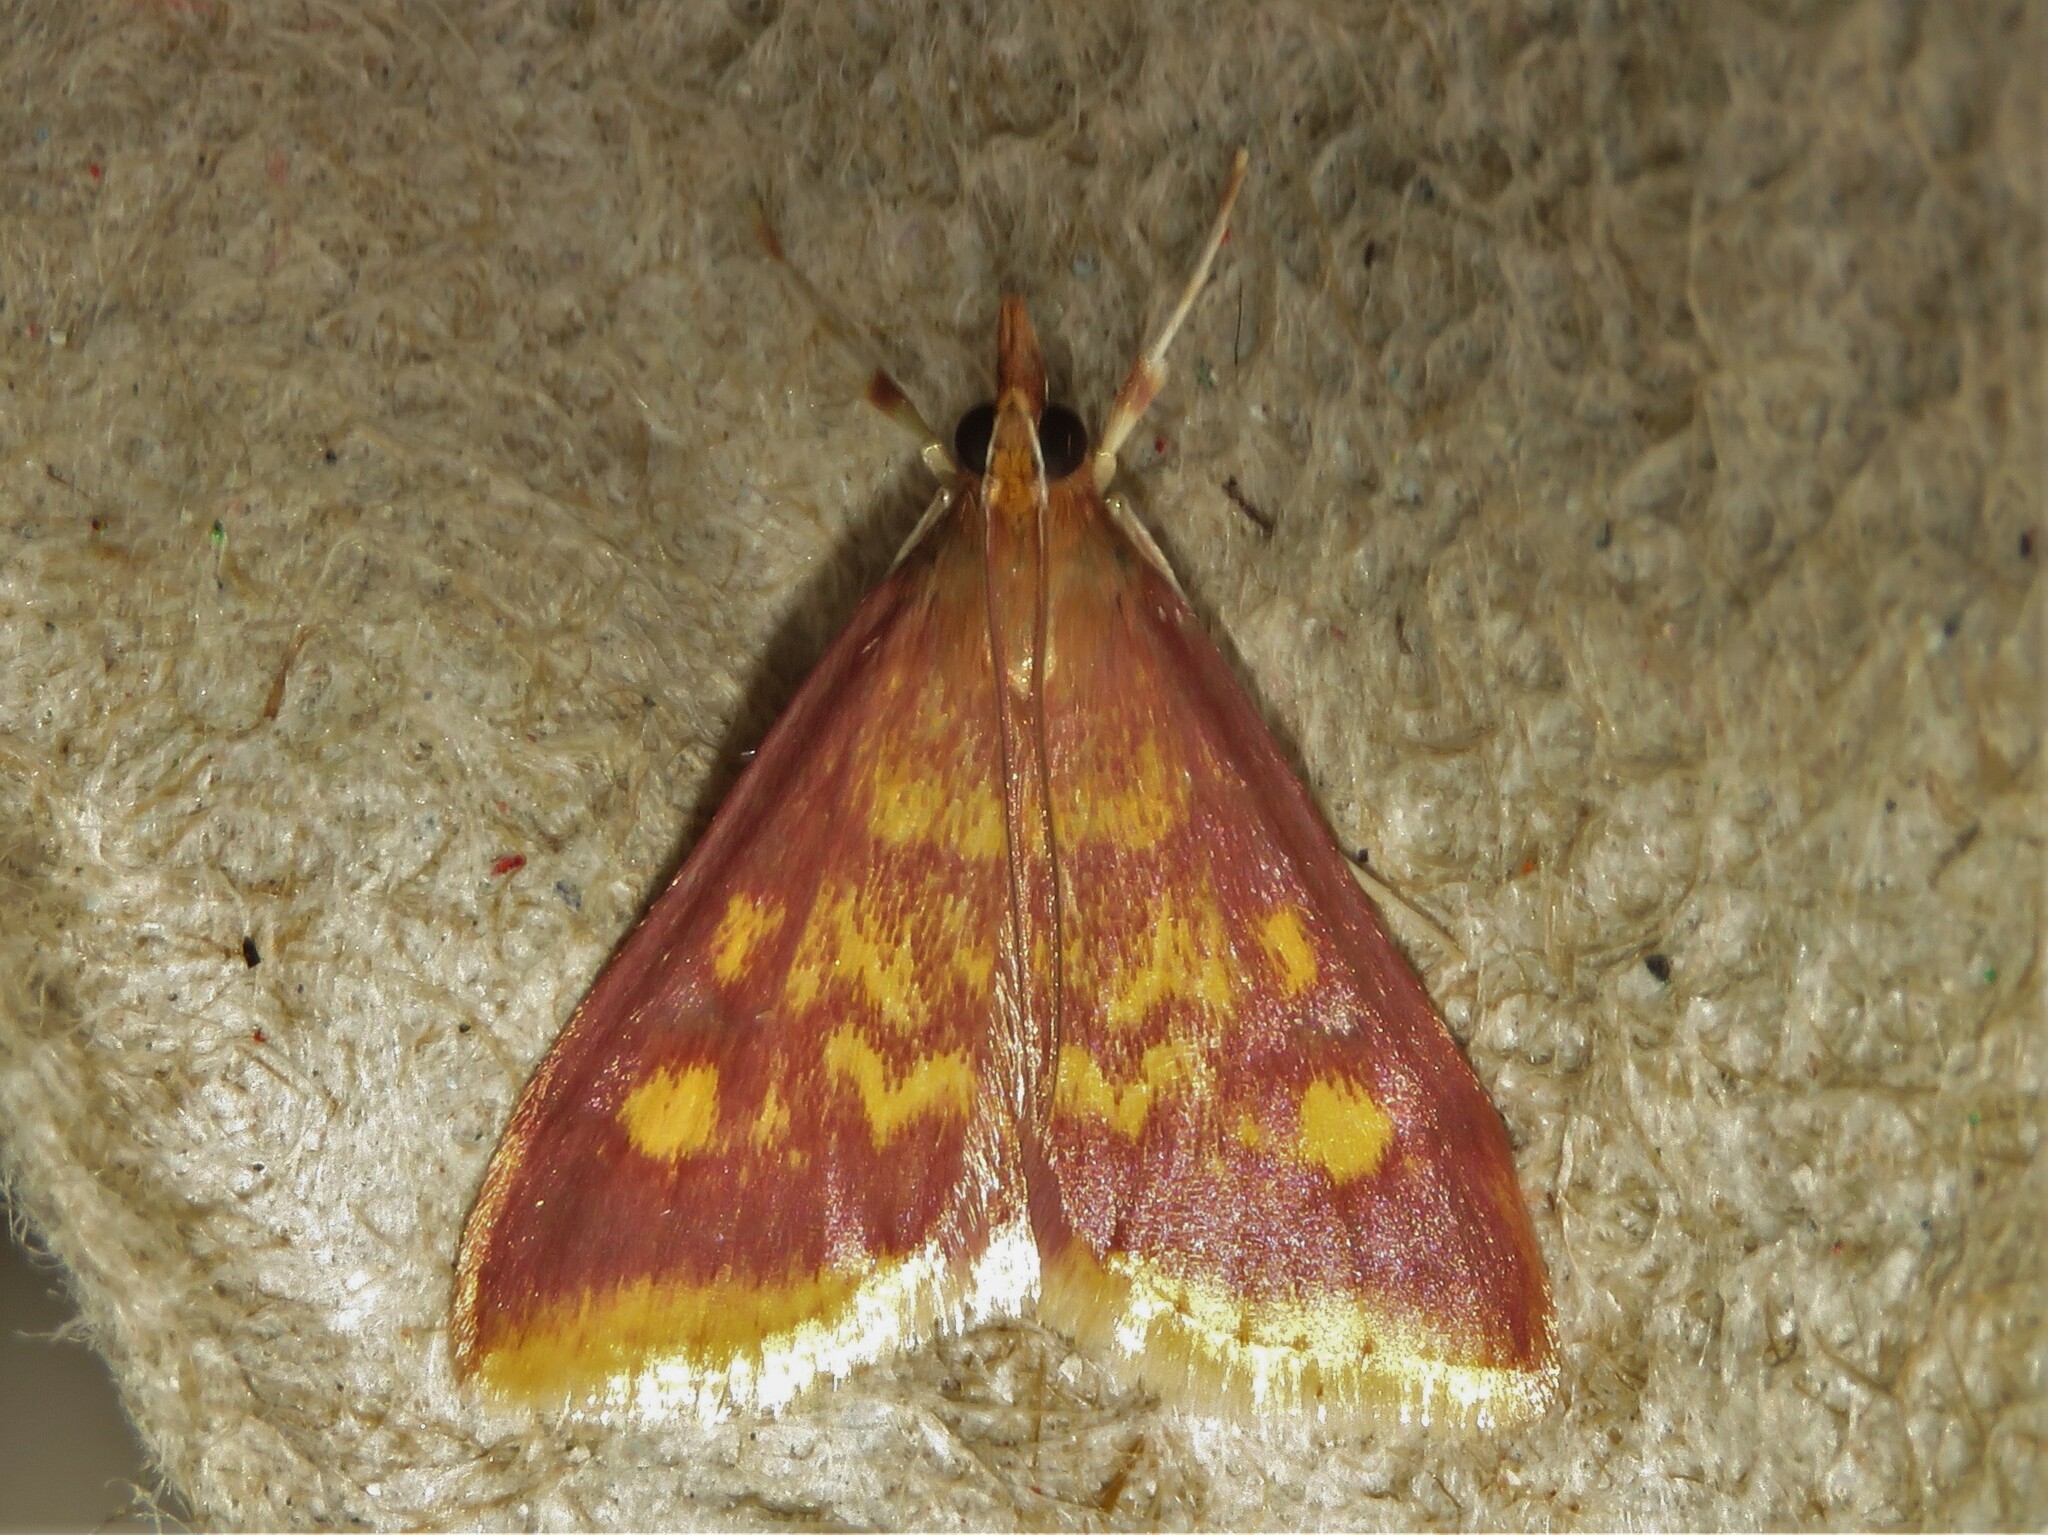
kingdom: Animalia
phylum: Arthropoda
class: Insecta
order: Lepidoptera
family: Crambidae
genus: Pyrausta
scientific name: Pyrausta acrionalis
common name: Mint-loving pyrausta moth
